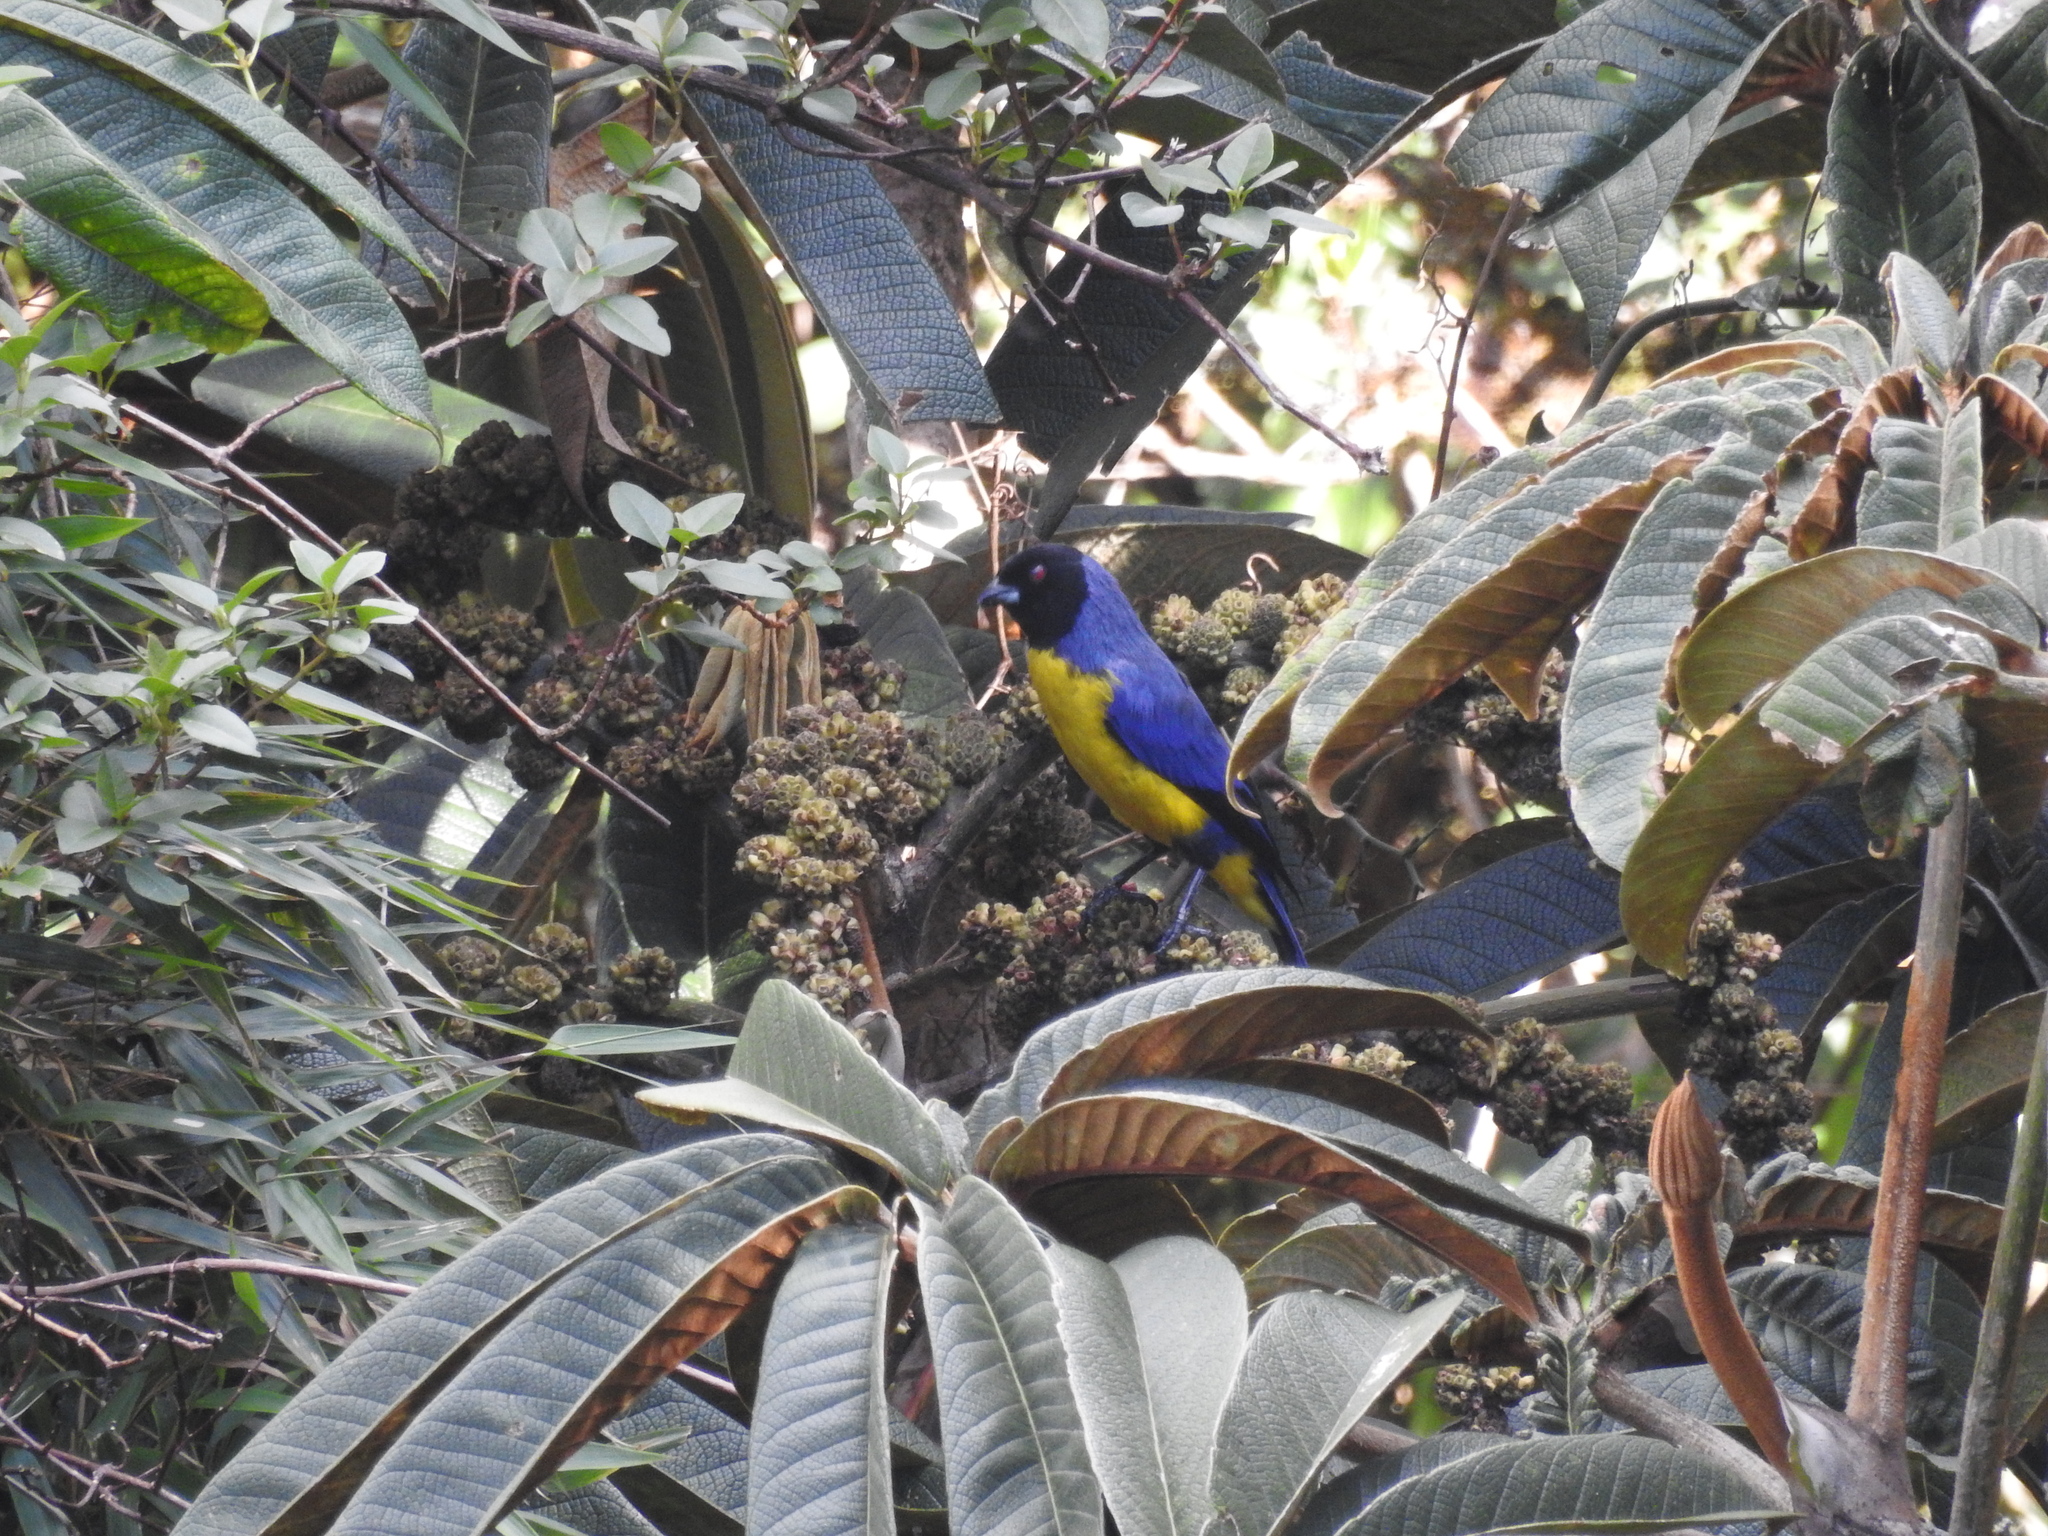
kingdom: Animalia
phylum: Chordata
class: Aves
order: Passeriformes
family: Thraupidae
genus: Buthraupis
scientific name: Buthraupis montana
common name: Hooded mountain tanager
